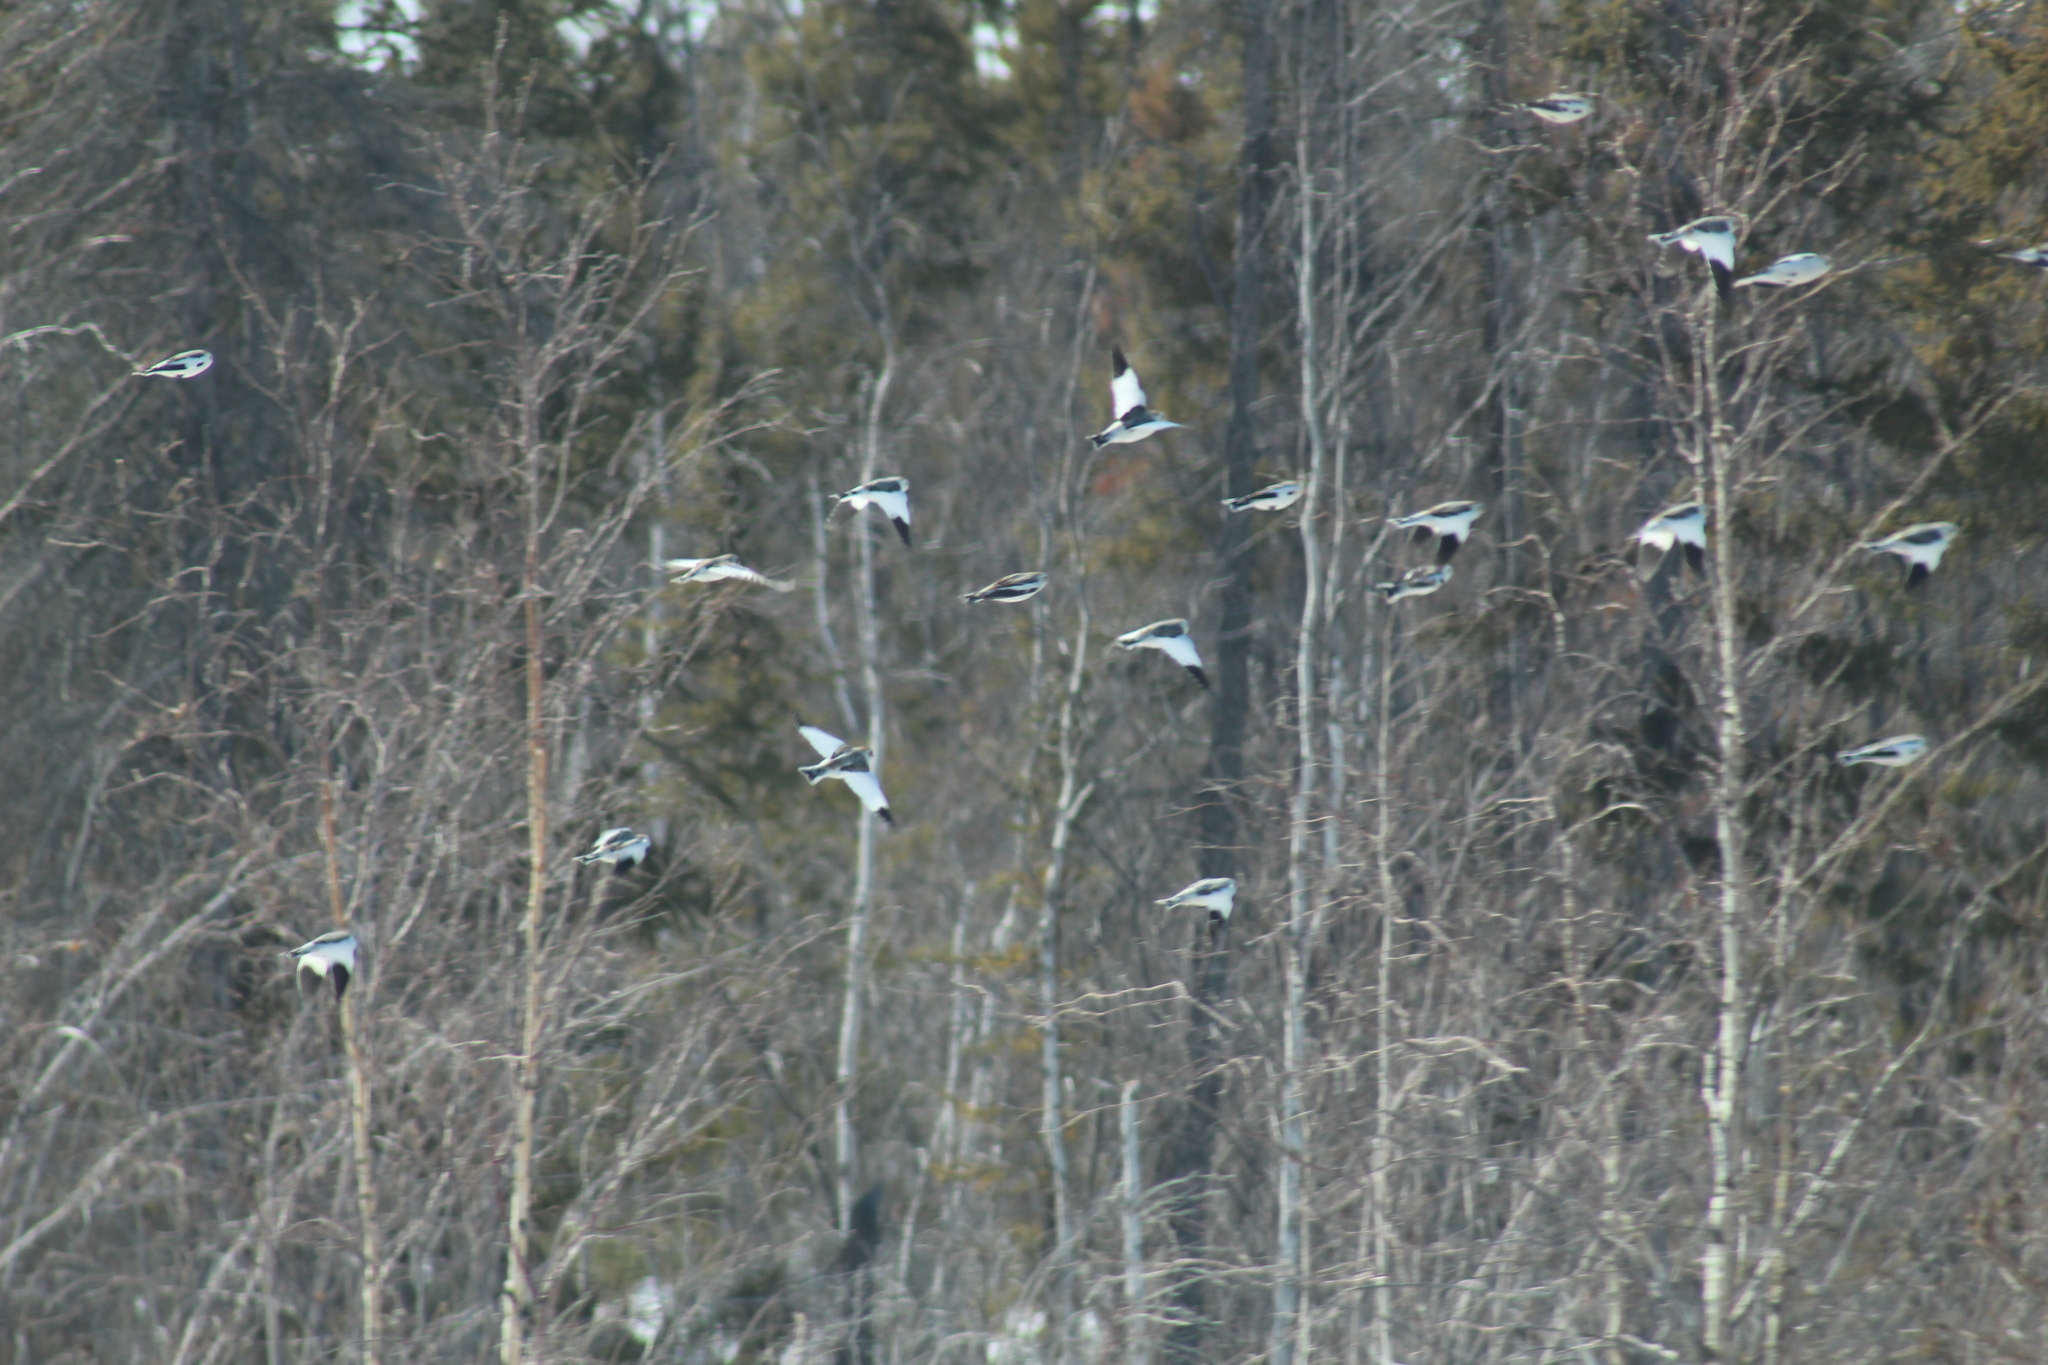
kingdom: Animalia
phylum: Chordata
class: Aves
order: Passeriformes
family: Calcariidae
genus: Plectrophenax
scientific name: Plectrophenax nivalis
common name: Snow bunting
